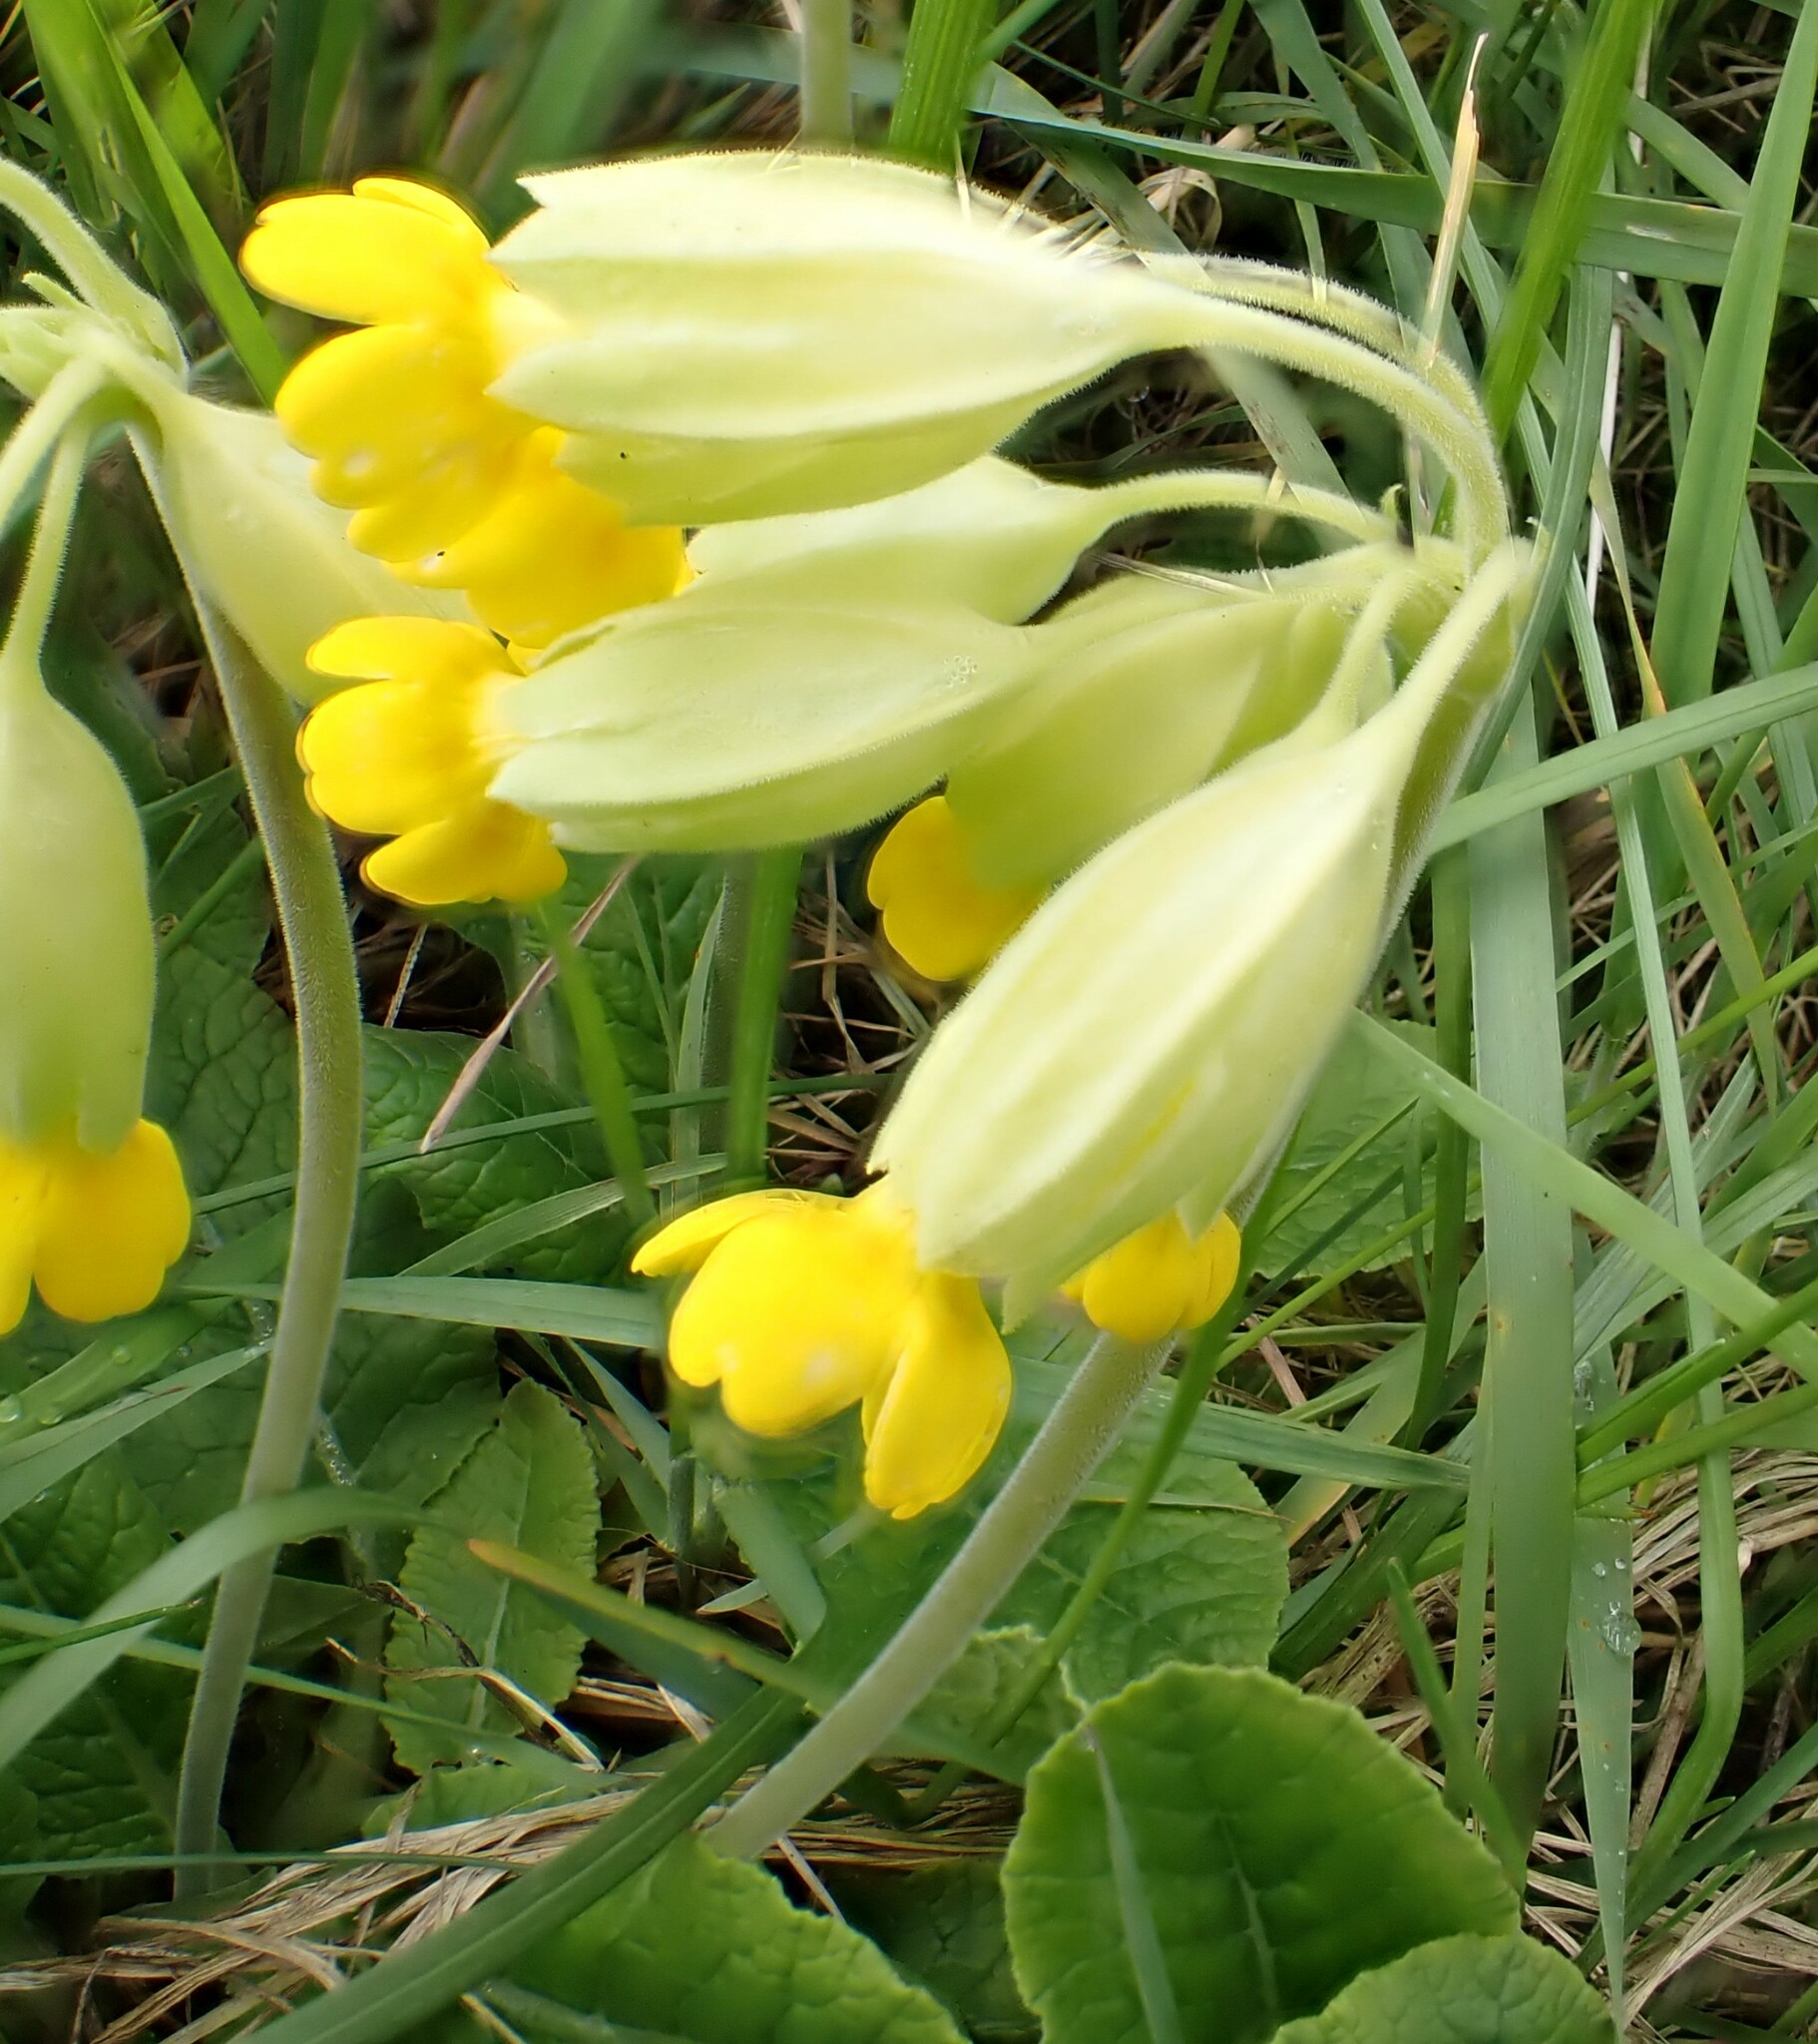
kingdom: Plantae
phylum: Tracheophyta
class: Magnoliopsida
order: Ericales
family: Primulaceae
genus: Primula
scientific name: Primula veris
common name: Cowslip
